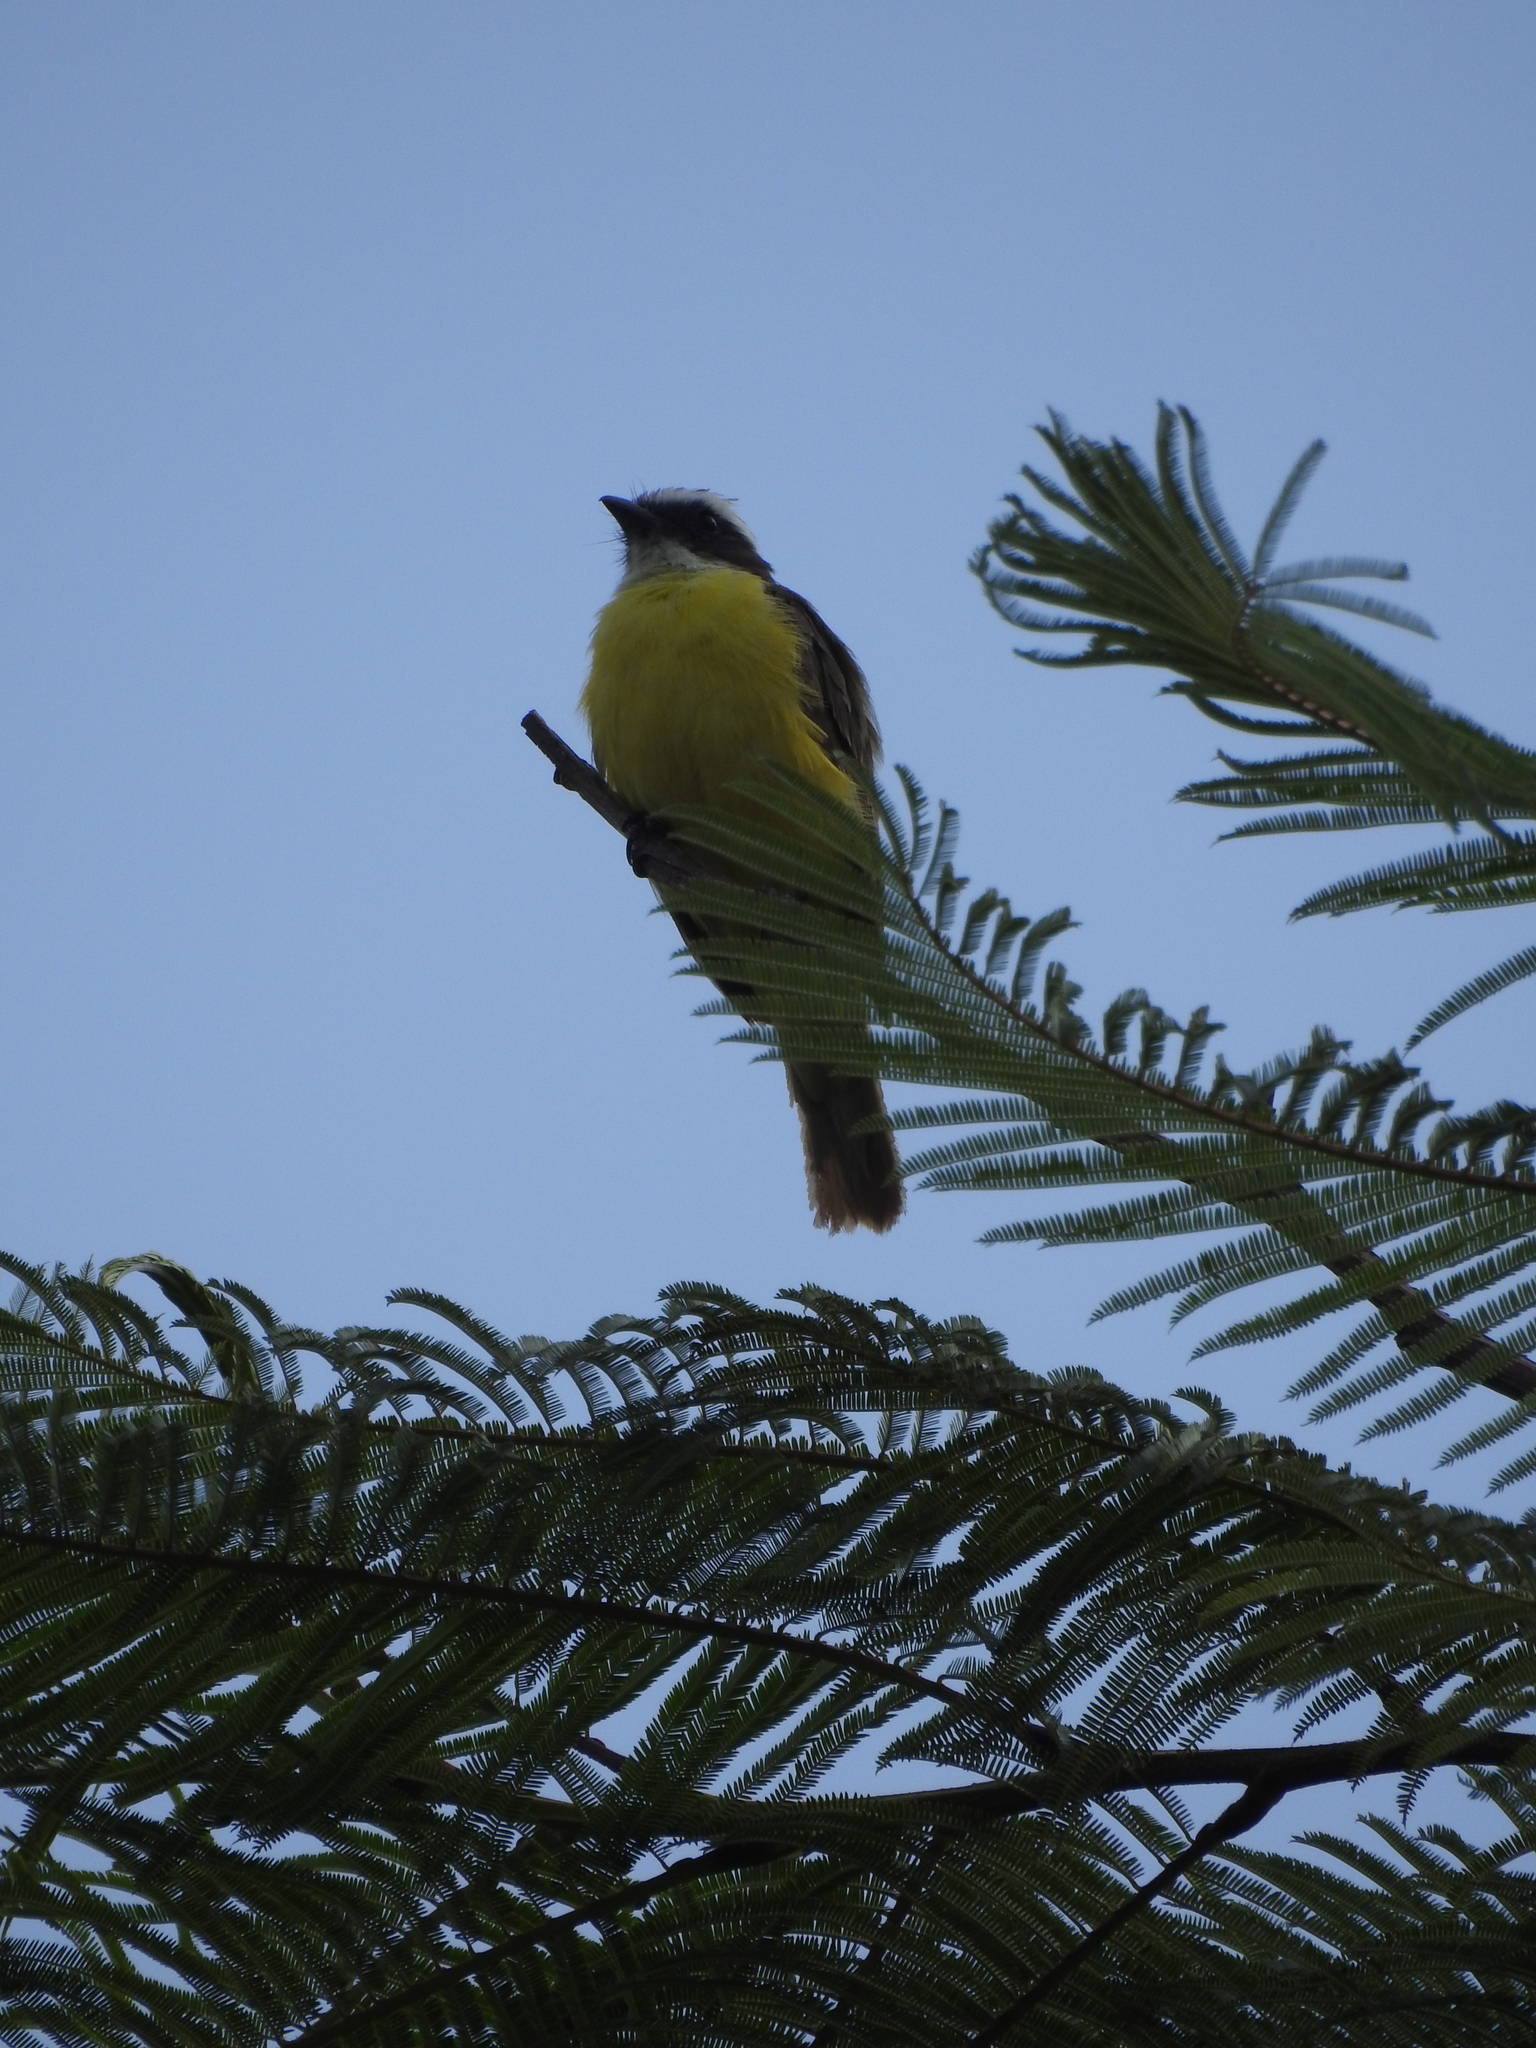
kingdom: Animalia
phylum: Chordata
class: Aves
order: Passeriformes
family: Tyrannidae
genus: Myiozetetes
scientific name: Myiozetetes similis
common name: Social flycatcher
